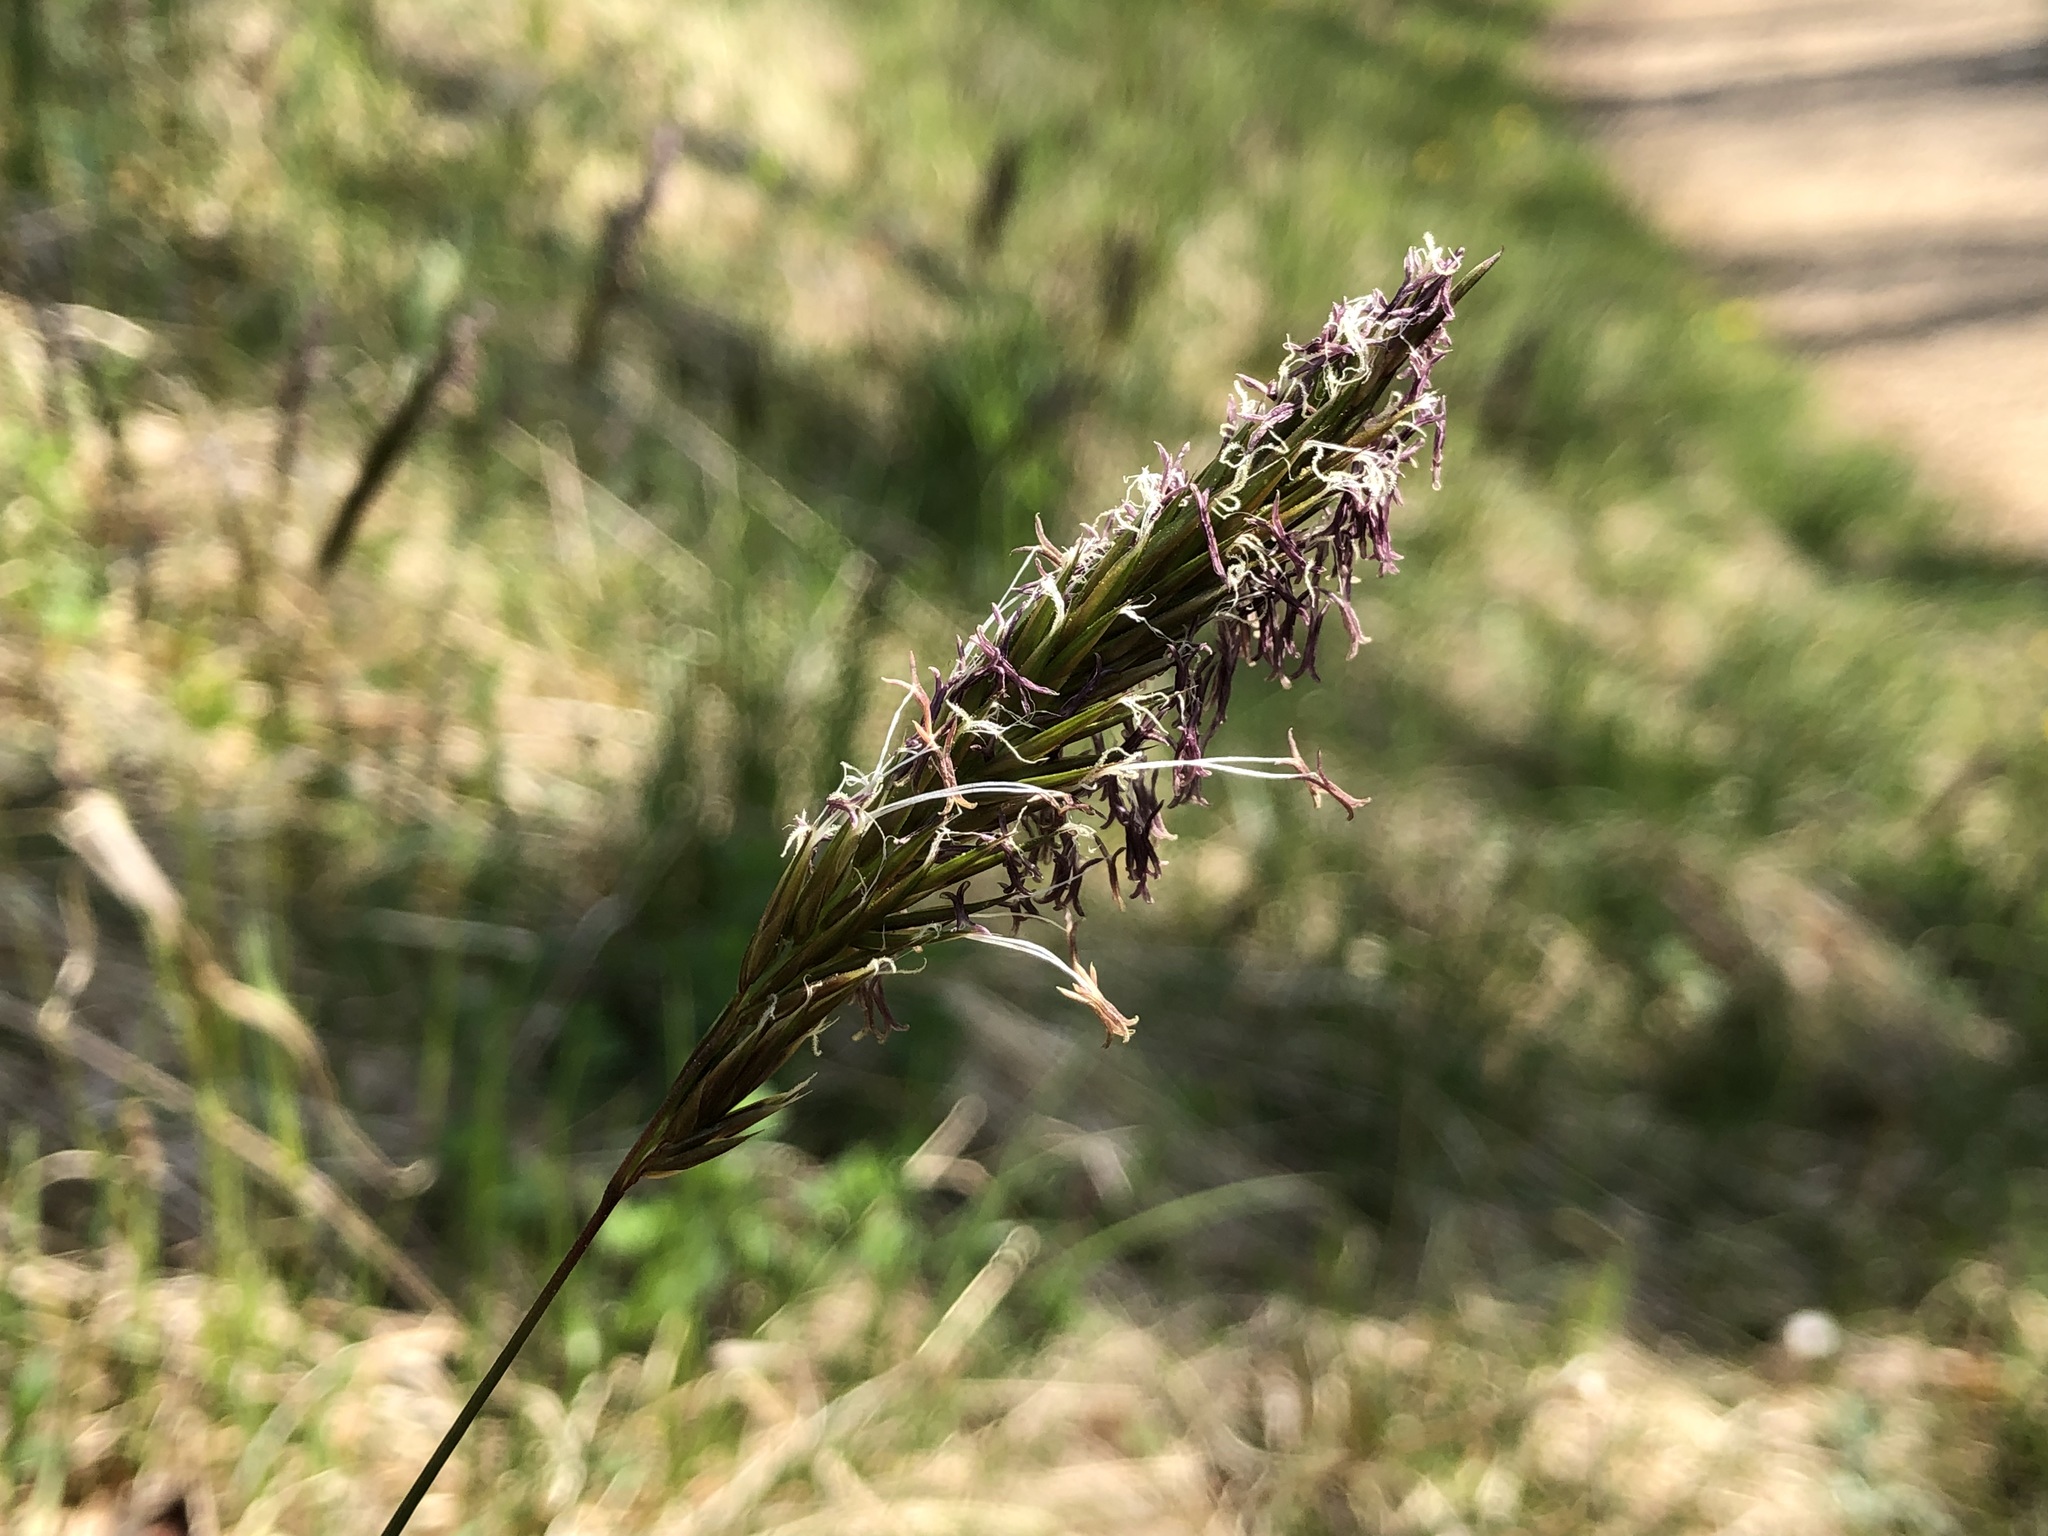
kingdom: Plantae
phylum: Tracheophyta
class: Liliopsida
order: Poales
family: Poaceae
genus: Anthoxanthum
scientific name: Anthoxanthum odoratum
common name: Sweet vernalgrass
